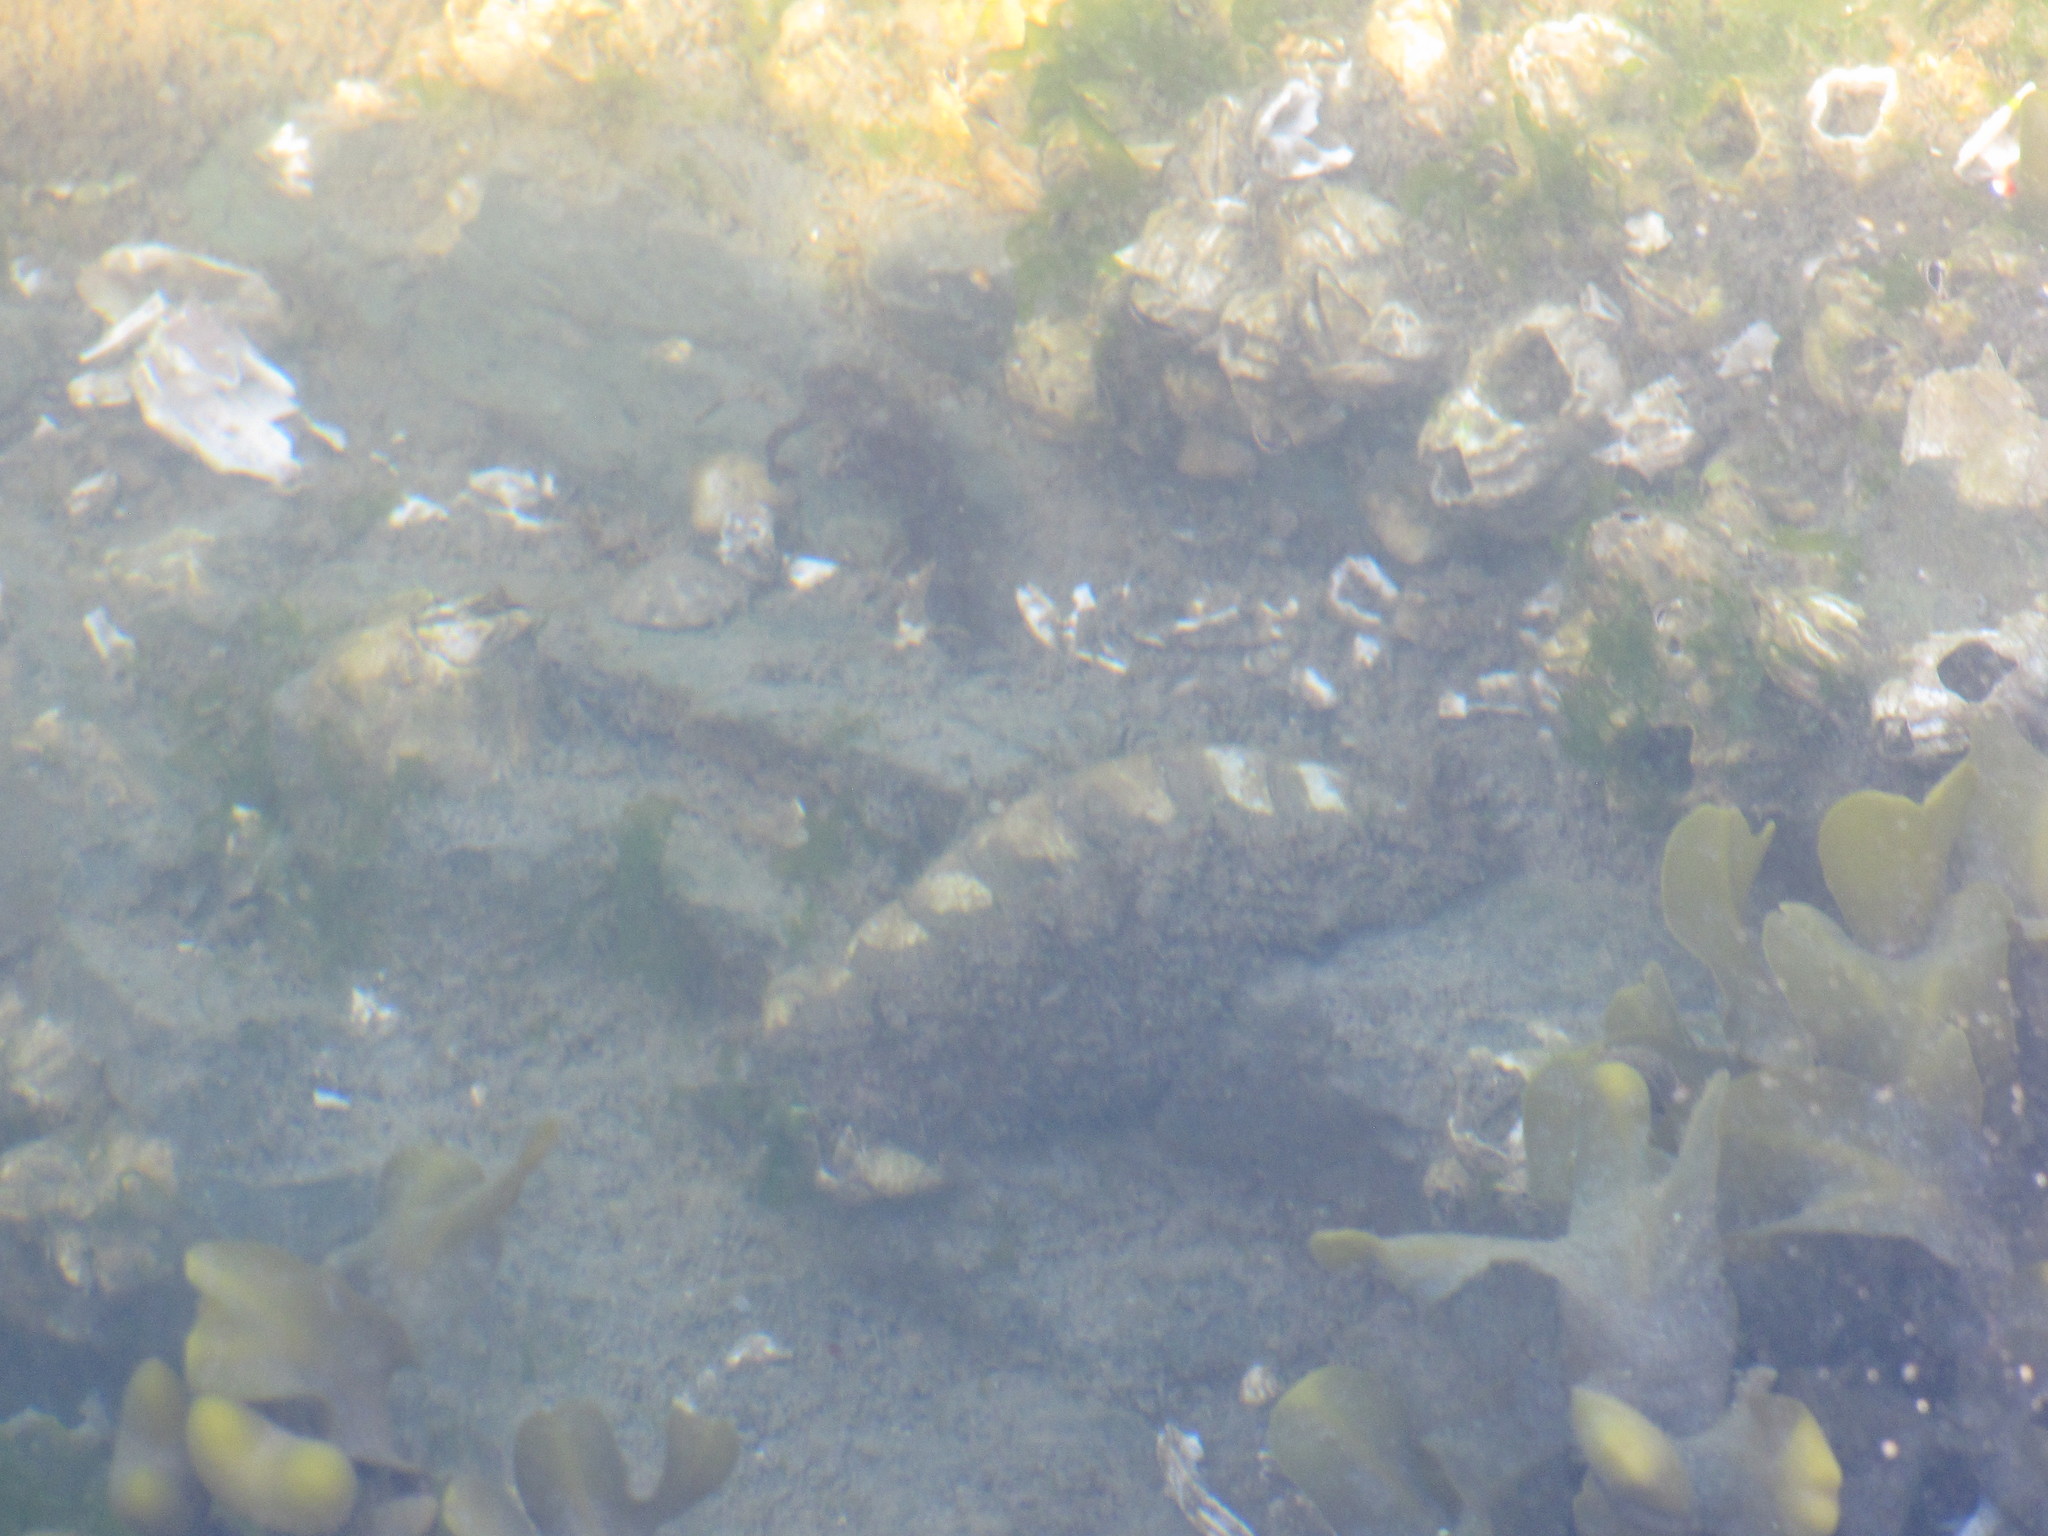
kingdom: Animalia
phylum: Mollusca
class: Polyplacophora
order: Chitonida
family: Mopaliidae
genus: Mopalia
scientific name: Mopalia muscosa
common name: Mossy chiton
